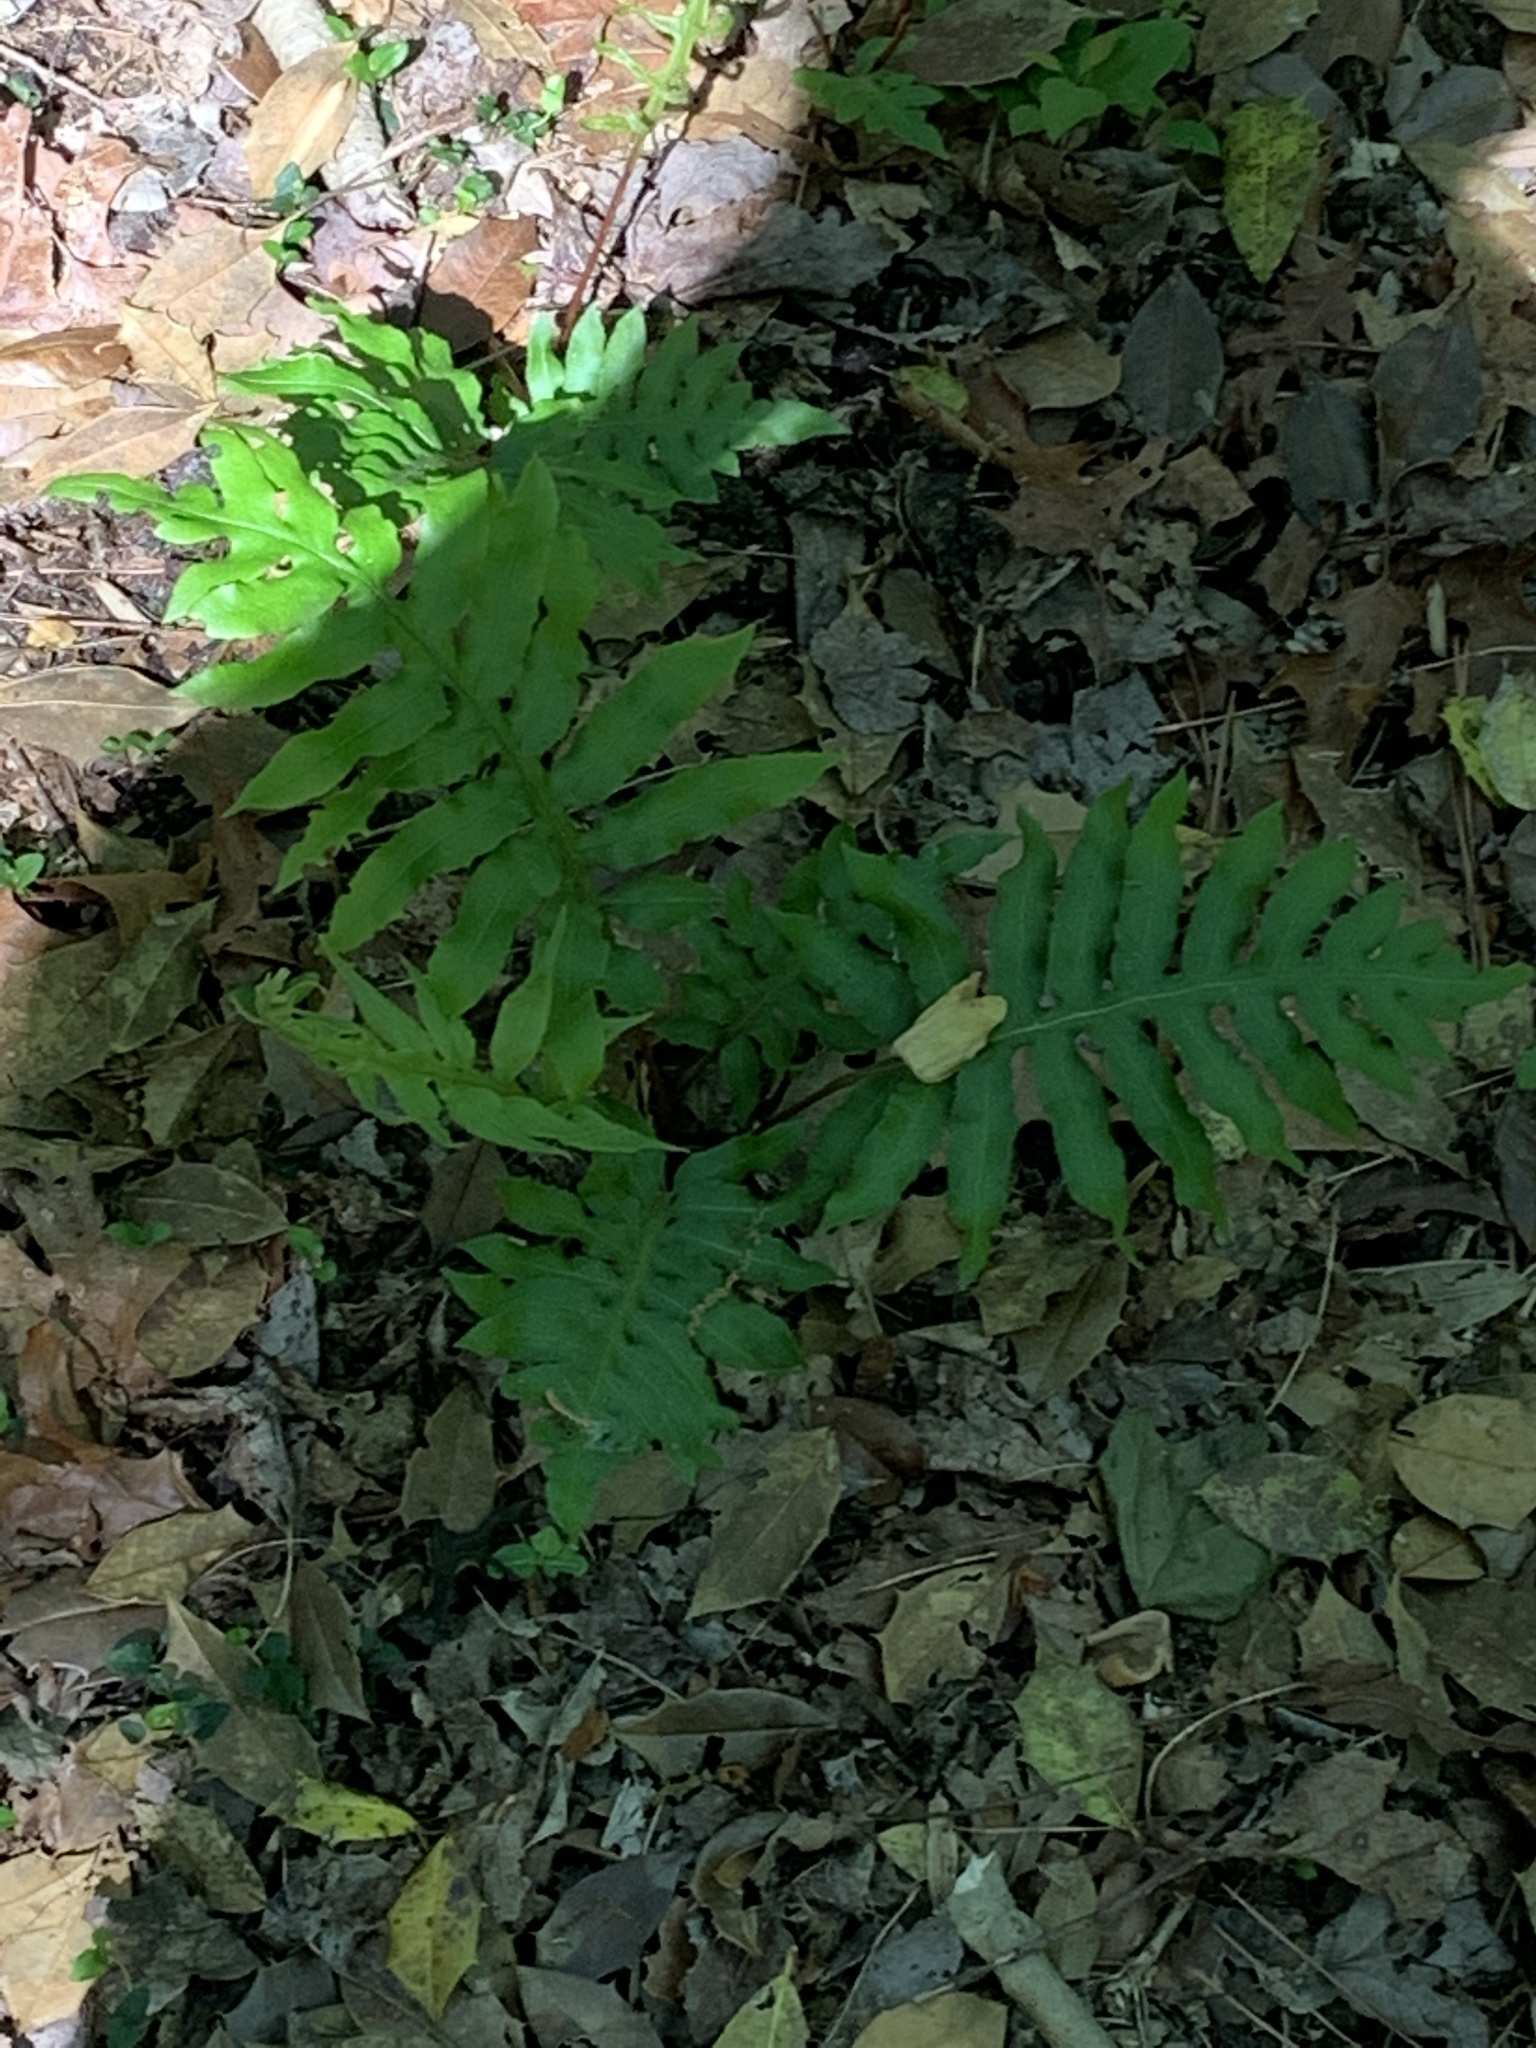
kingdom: Plantae
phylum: Tracheophyta
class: Polypodiopsida
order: Polypodiales
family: Blechnaceae
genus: Lorinseria
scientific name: Lorinseria areolata
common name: Dwarf chain fern
